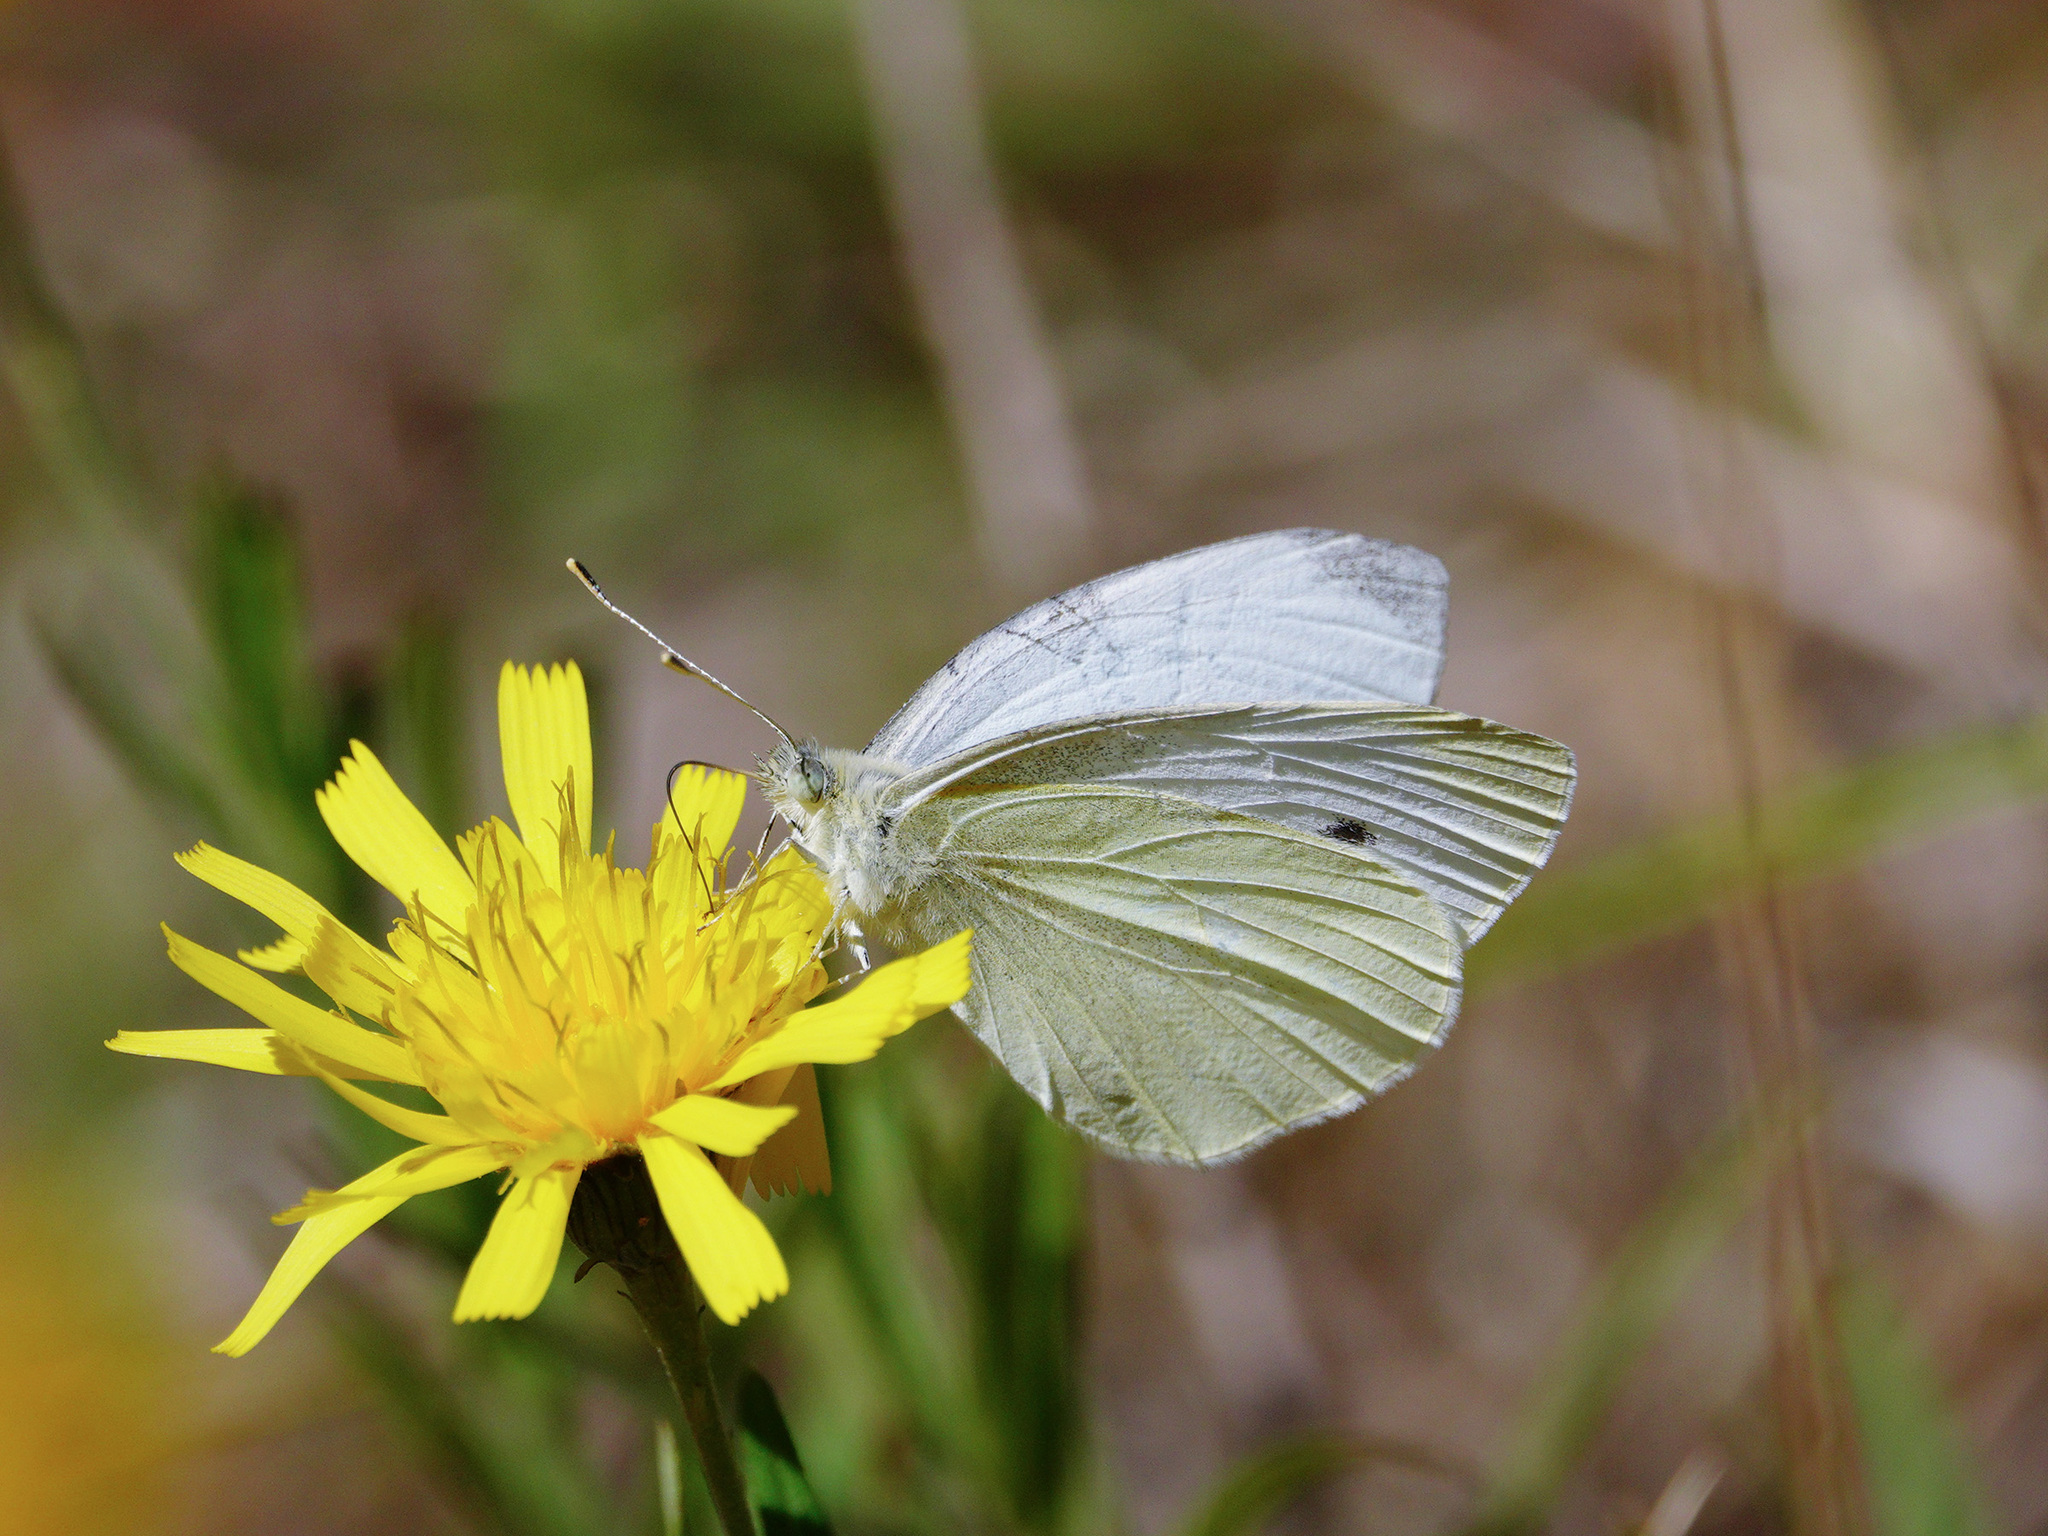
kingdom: Animalia
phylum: Arthropoda
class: Insecta
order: Lepidoptera
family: Pieridae
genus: Pieris
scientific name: Pieris rapae
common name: Small white
